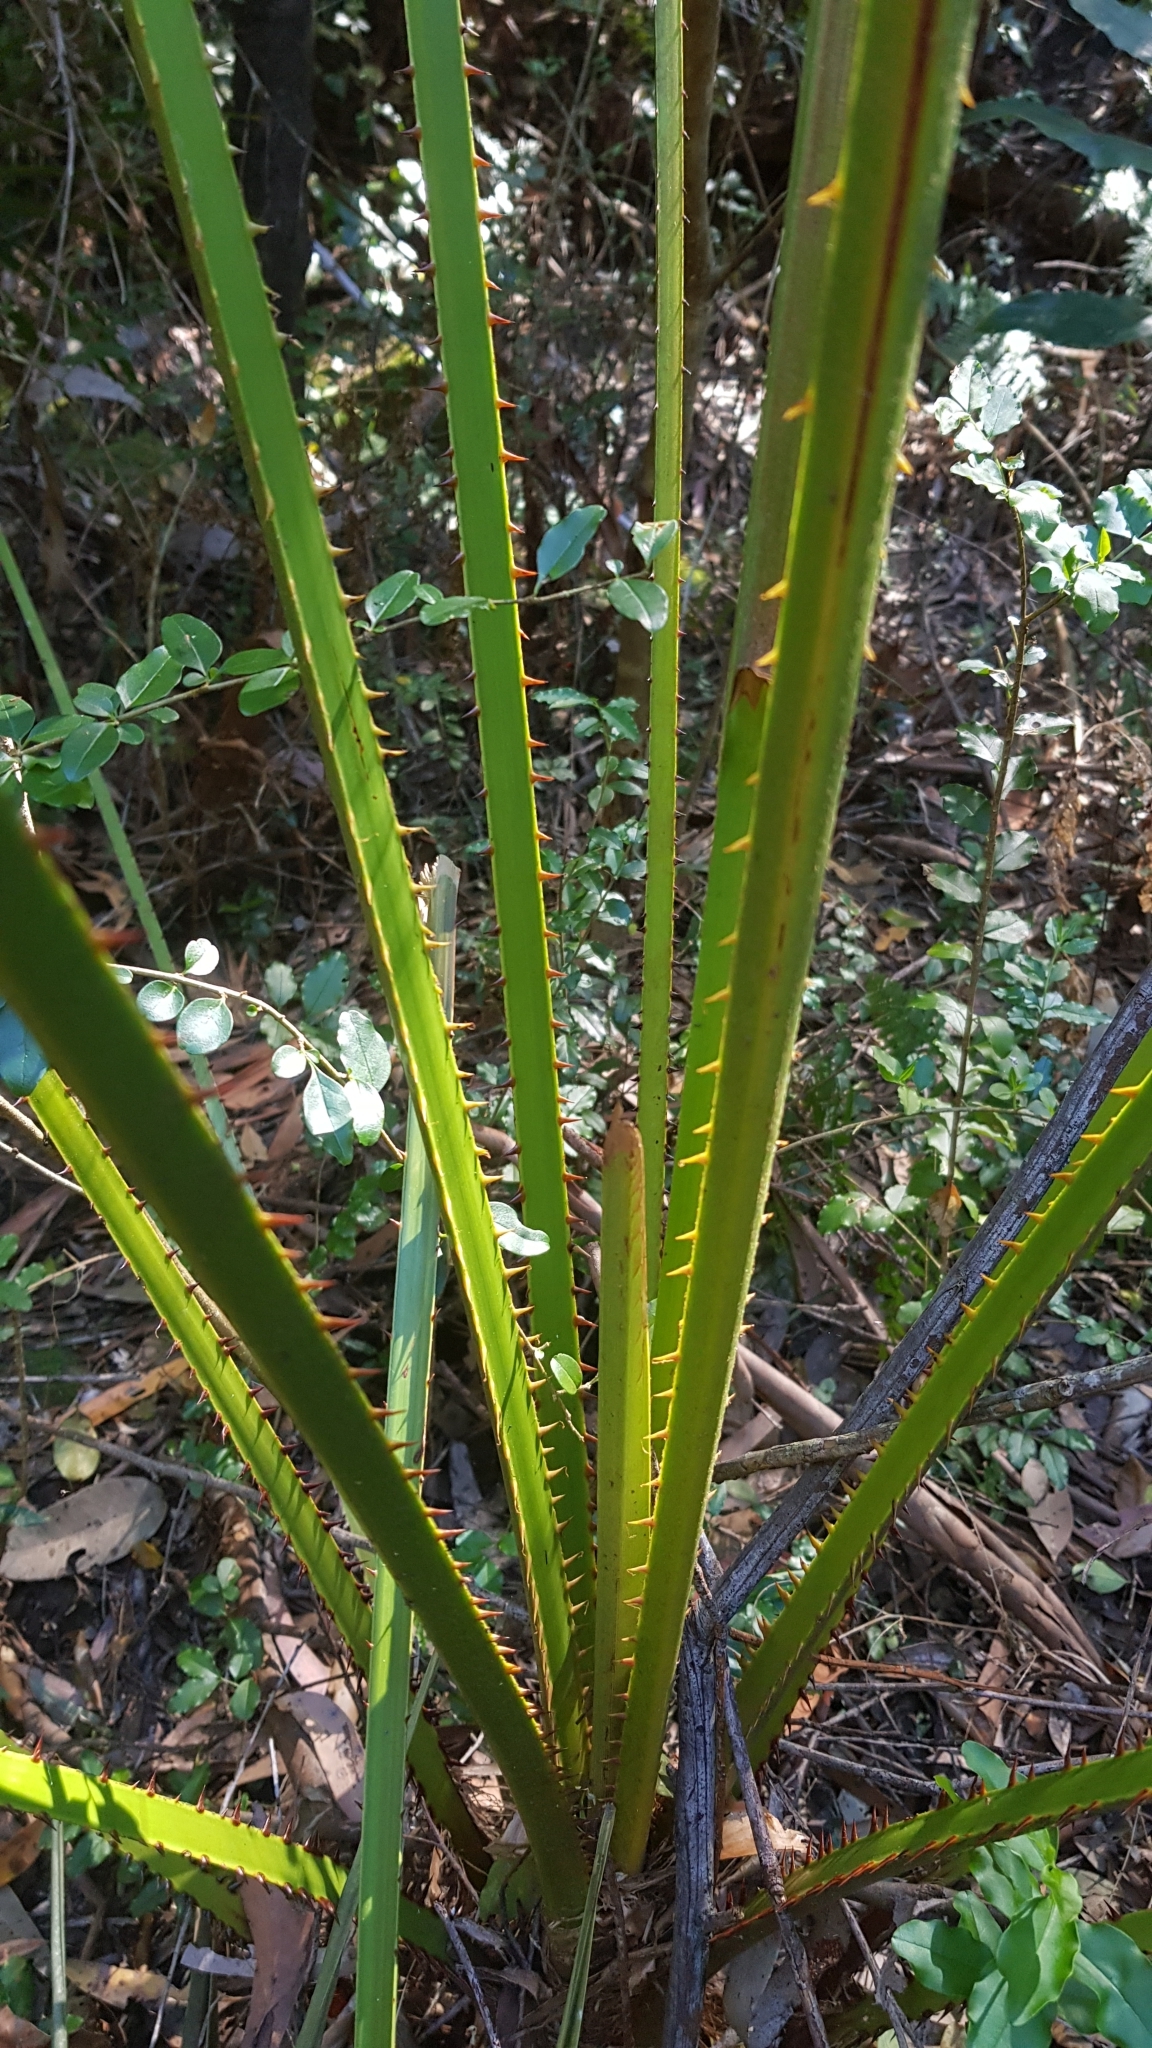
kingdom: Plantae
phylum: Tracheophyta
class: Liliopsida
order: Arecales
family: Arecaceae
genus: Livistona
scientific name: Livistona australis
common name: Cabbage fan palm
